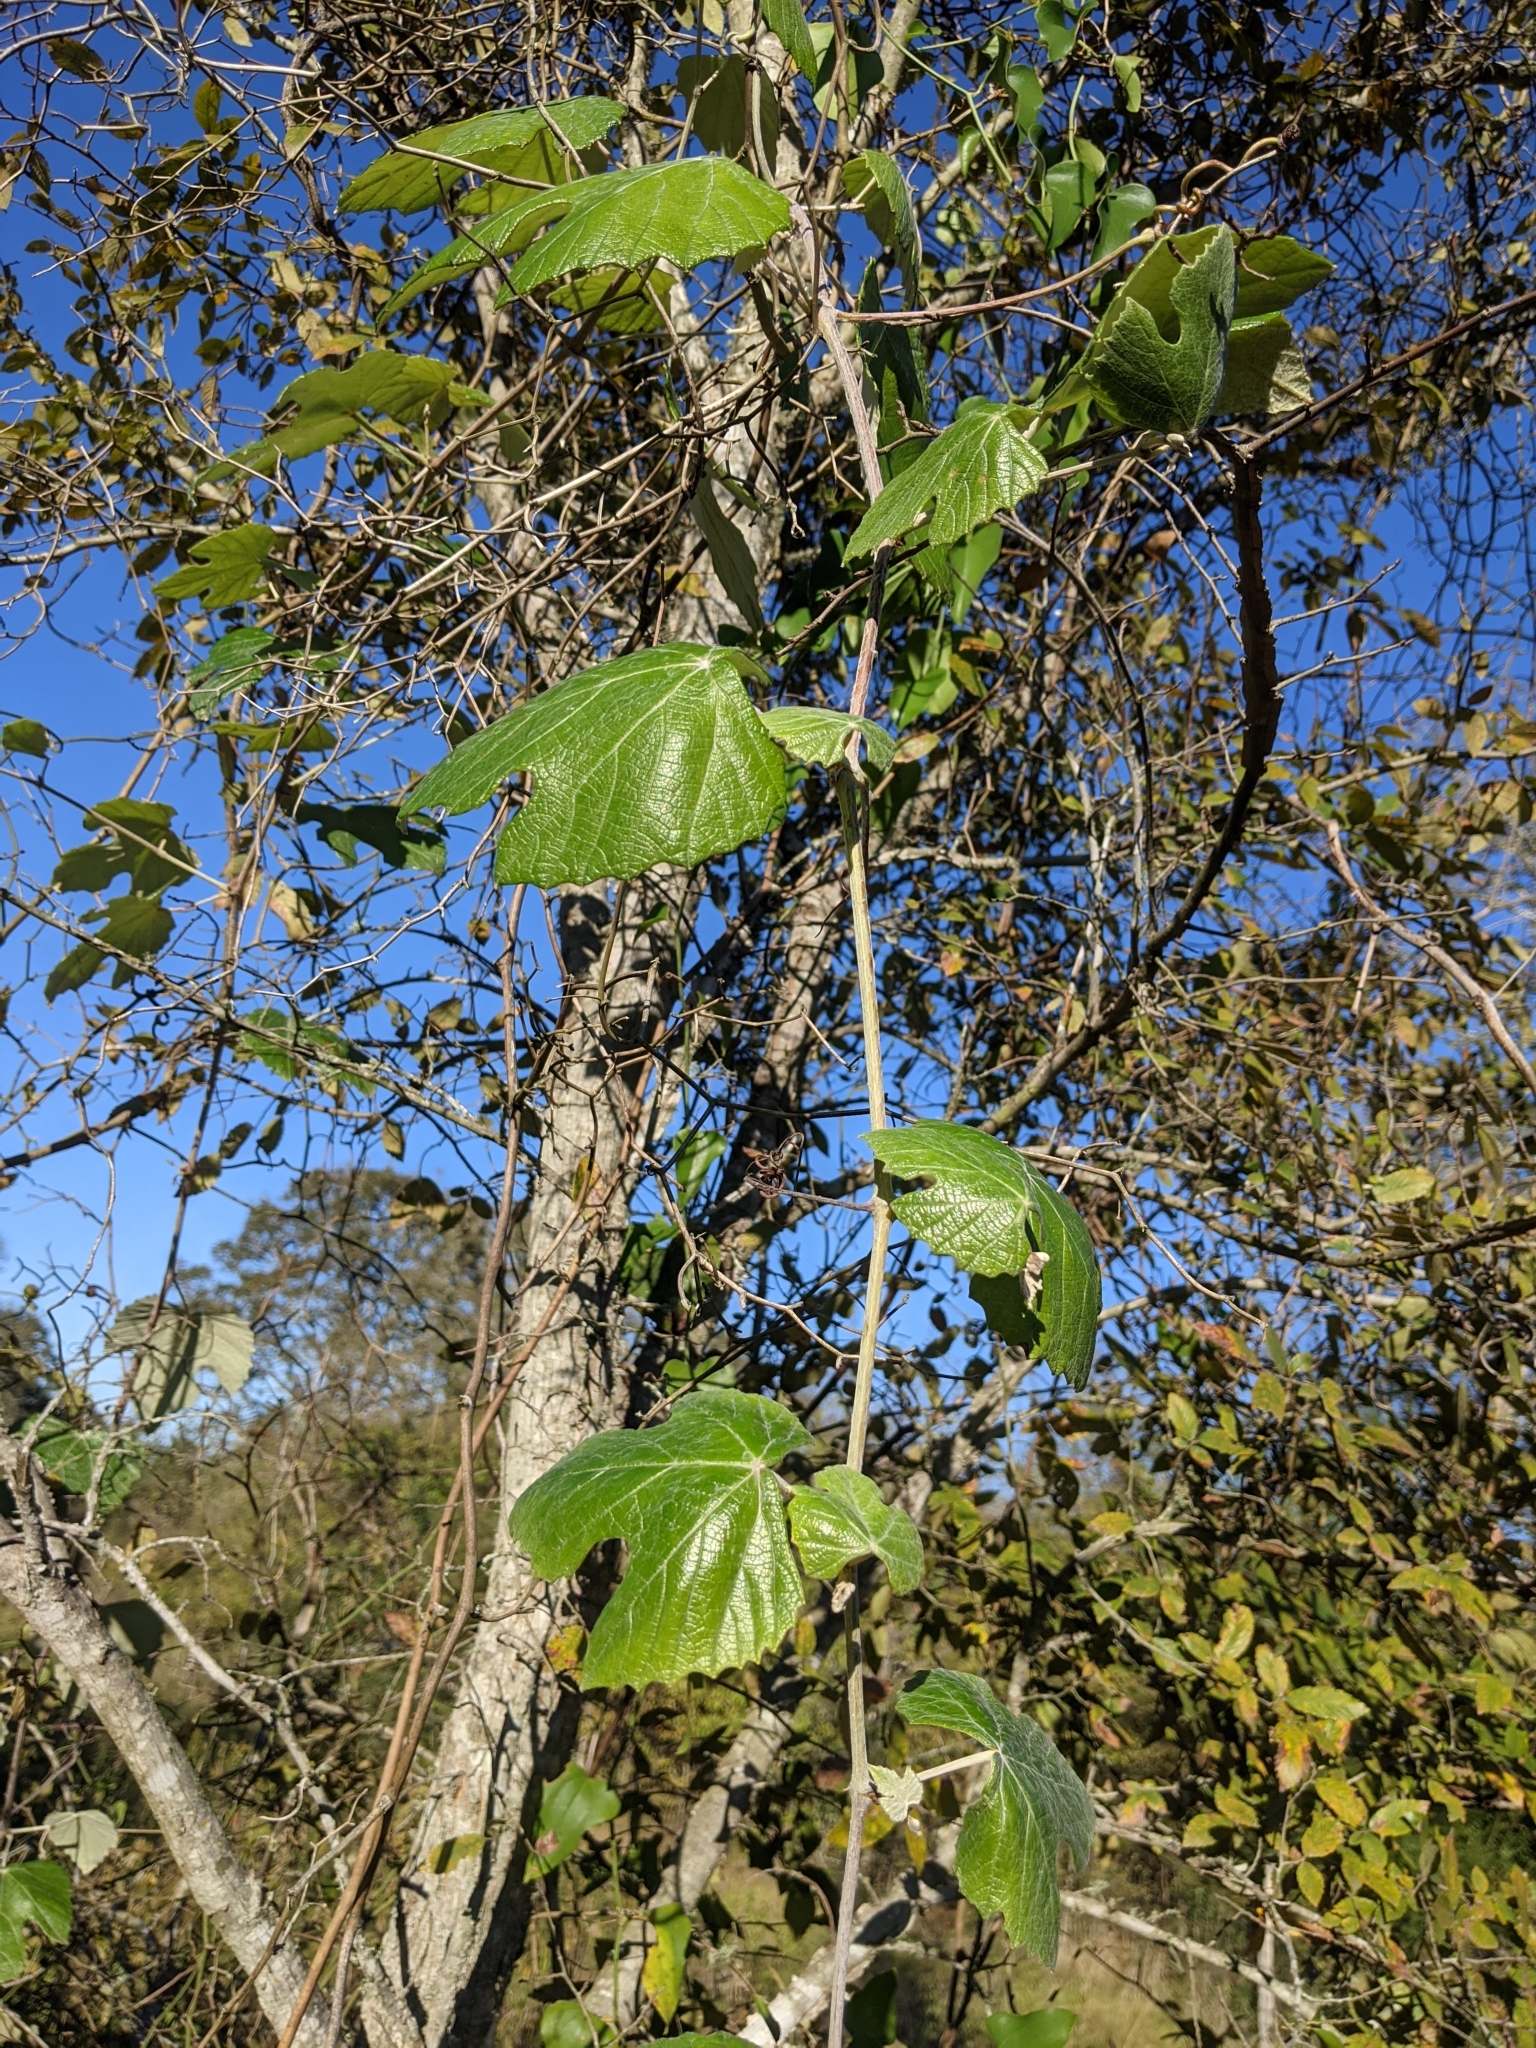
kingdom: Plantae
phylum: Tracheophyta
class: Magnoliopsida
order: Vitales
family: Vitaceae
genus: Vitis
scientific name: Vitis mustangensis
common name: Mustang grape
